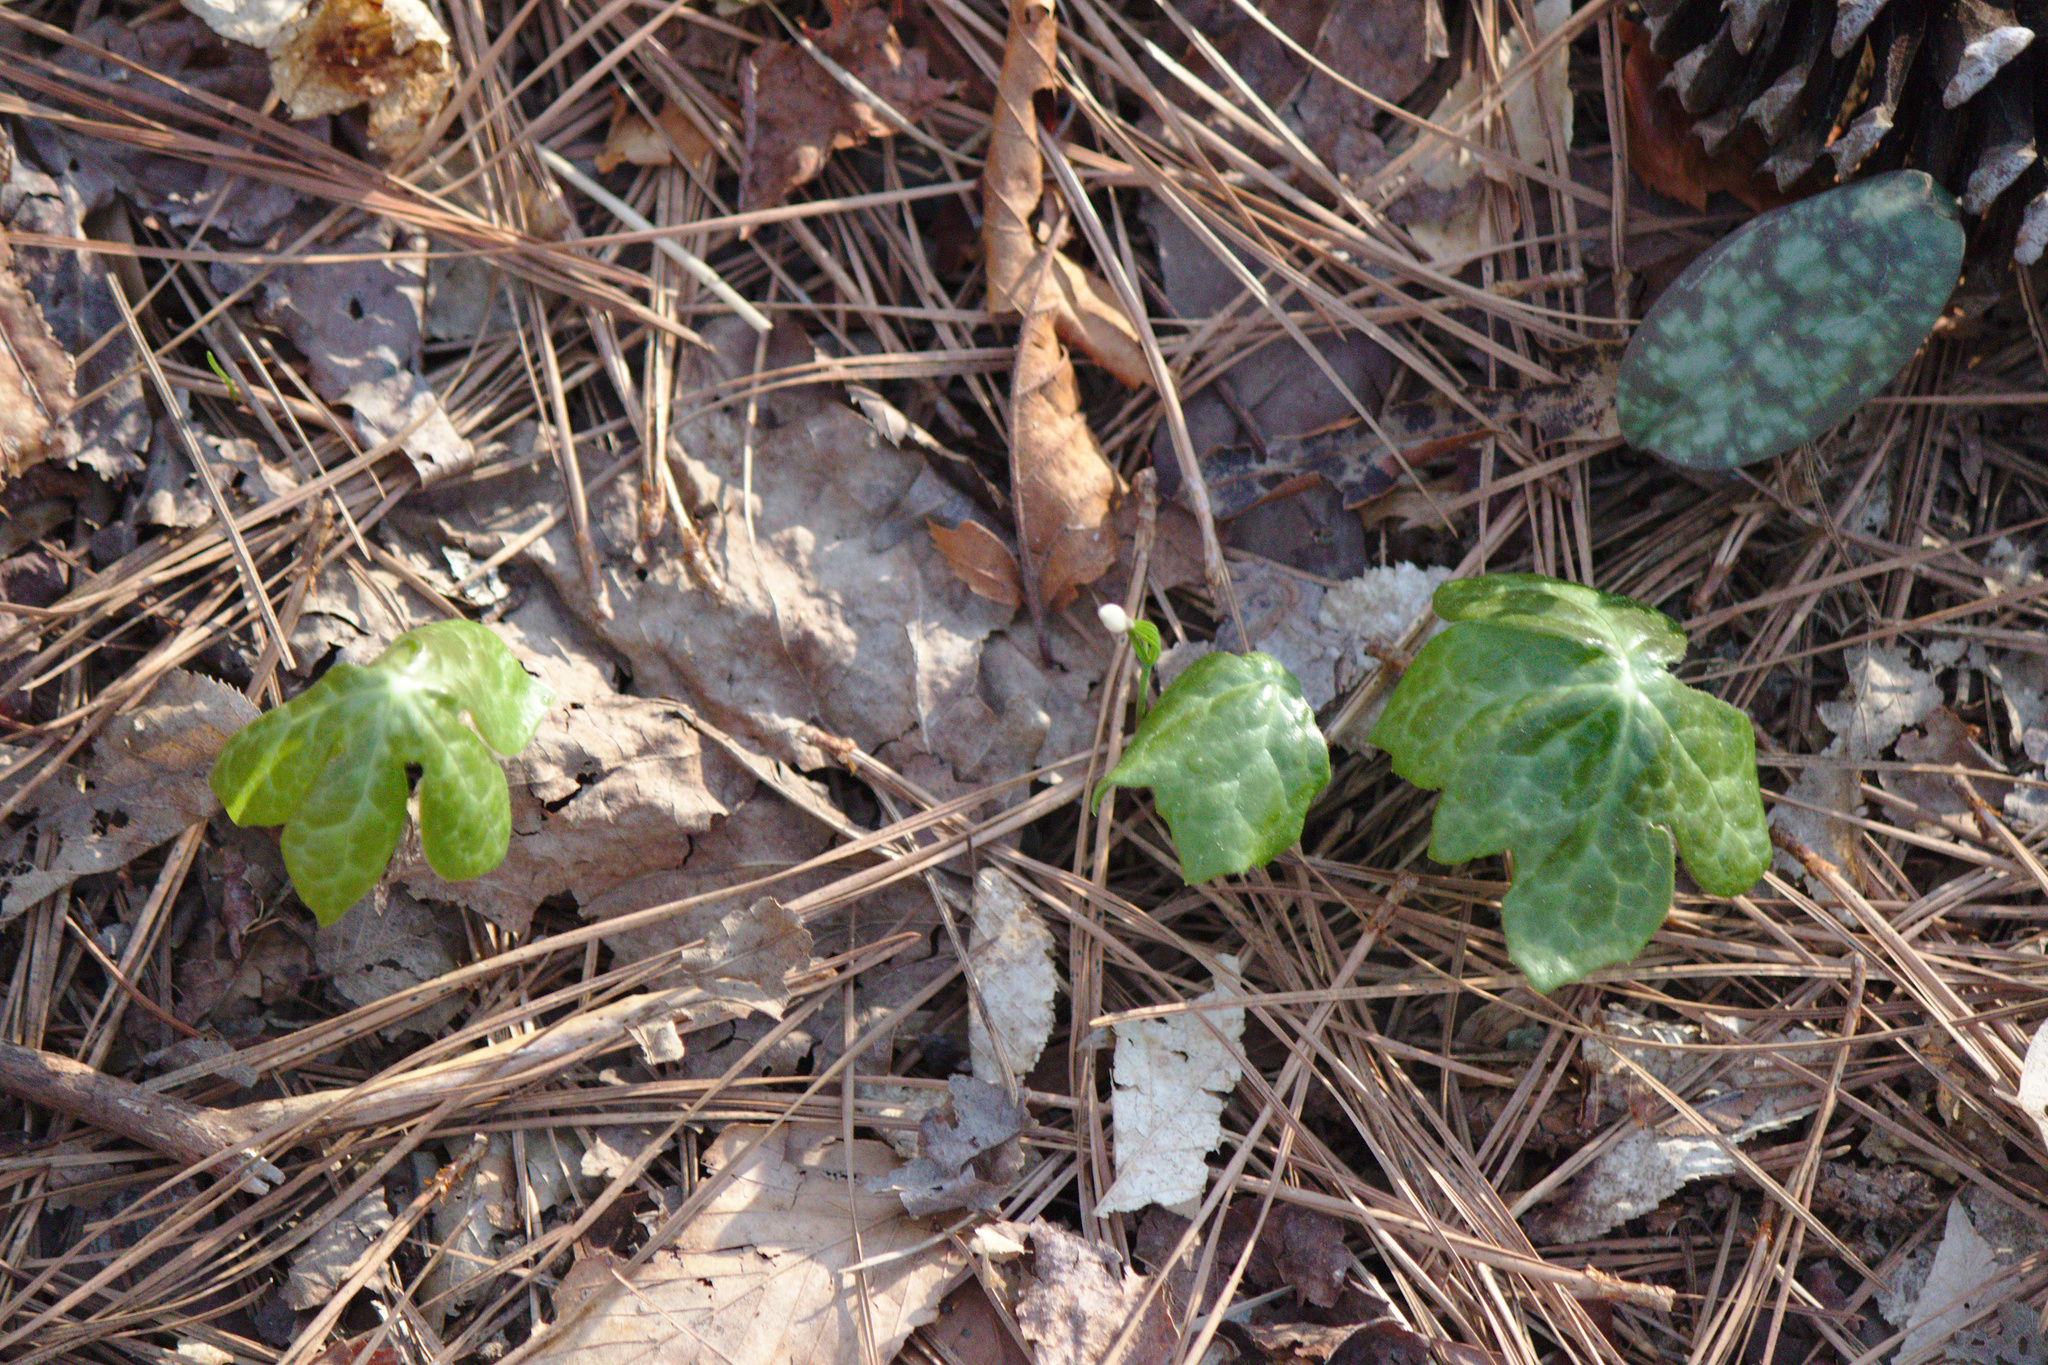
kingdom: Plantae
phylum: Tracheophyta
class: Magnoliopsida
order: Ranunculales
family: Berberidaceae
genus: Podophyllum
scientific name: Podophyllum peltatum
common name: Wild mandrake
